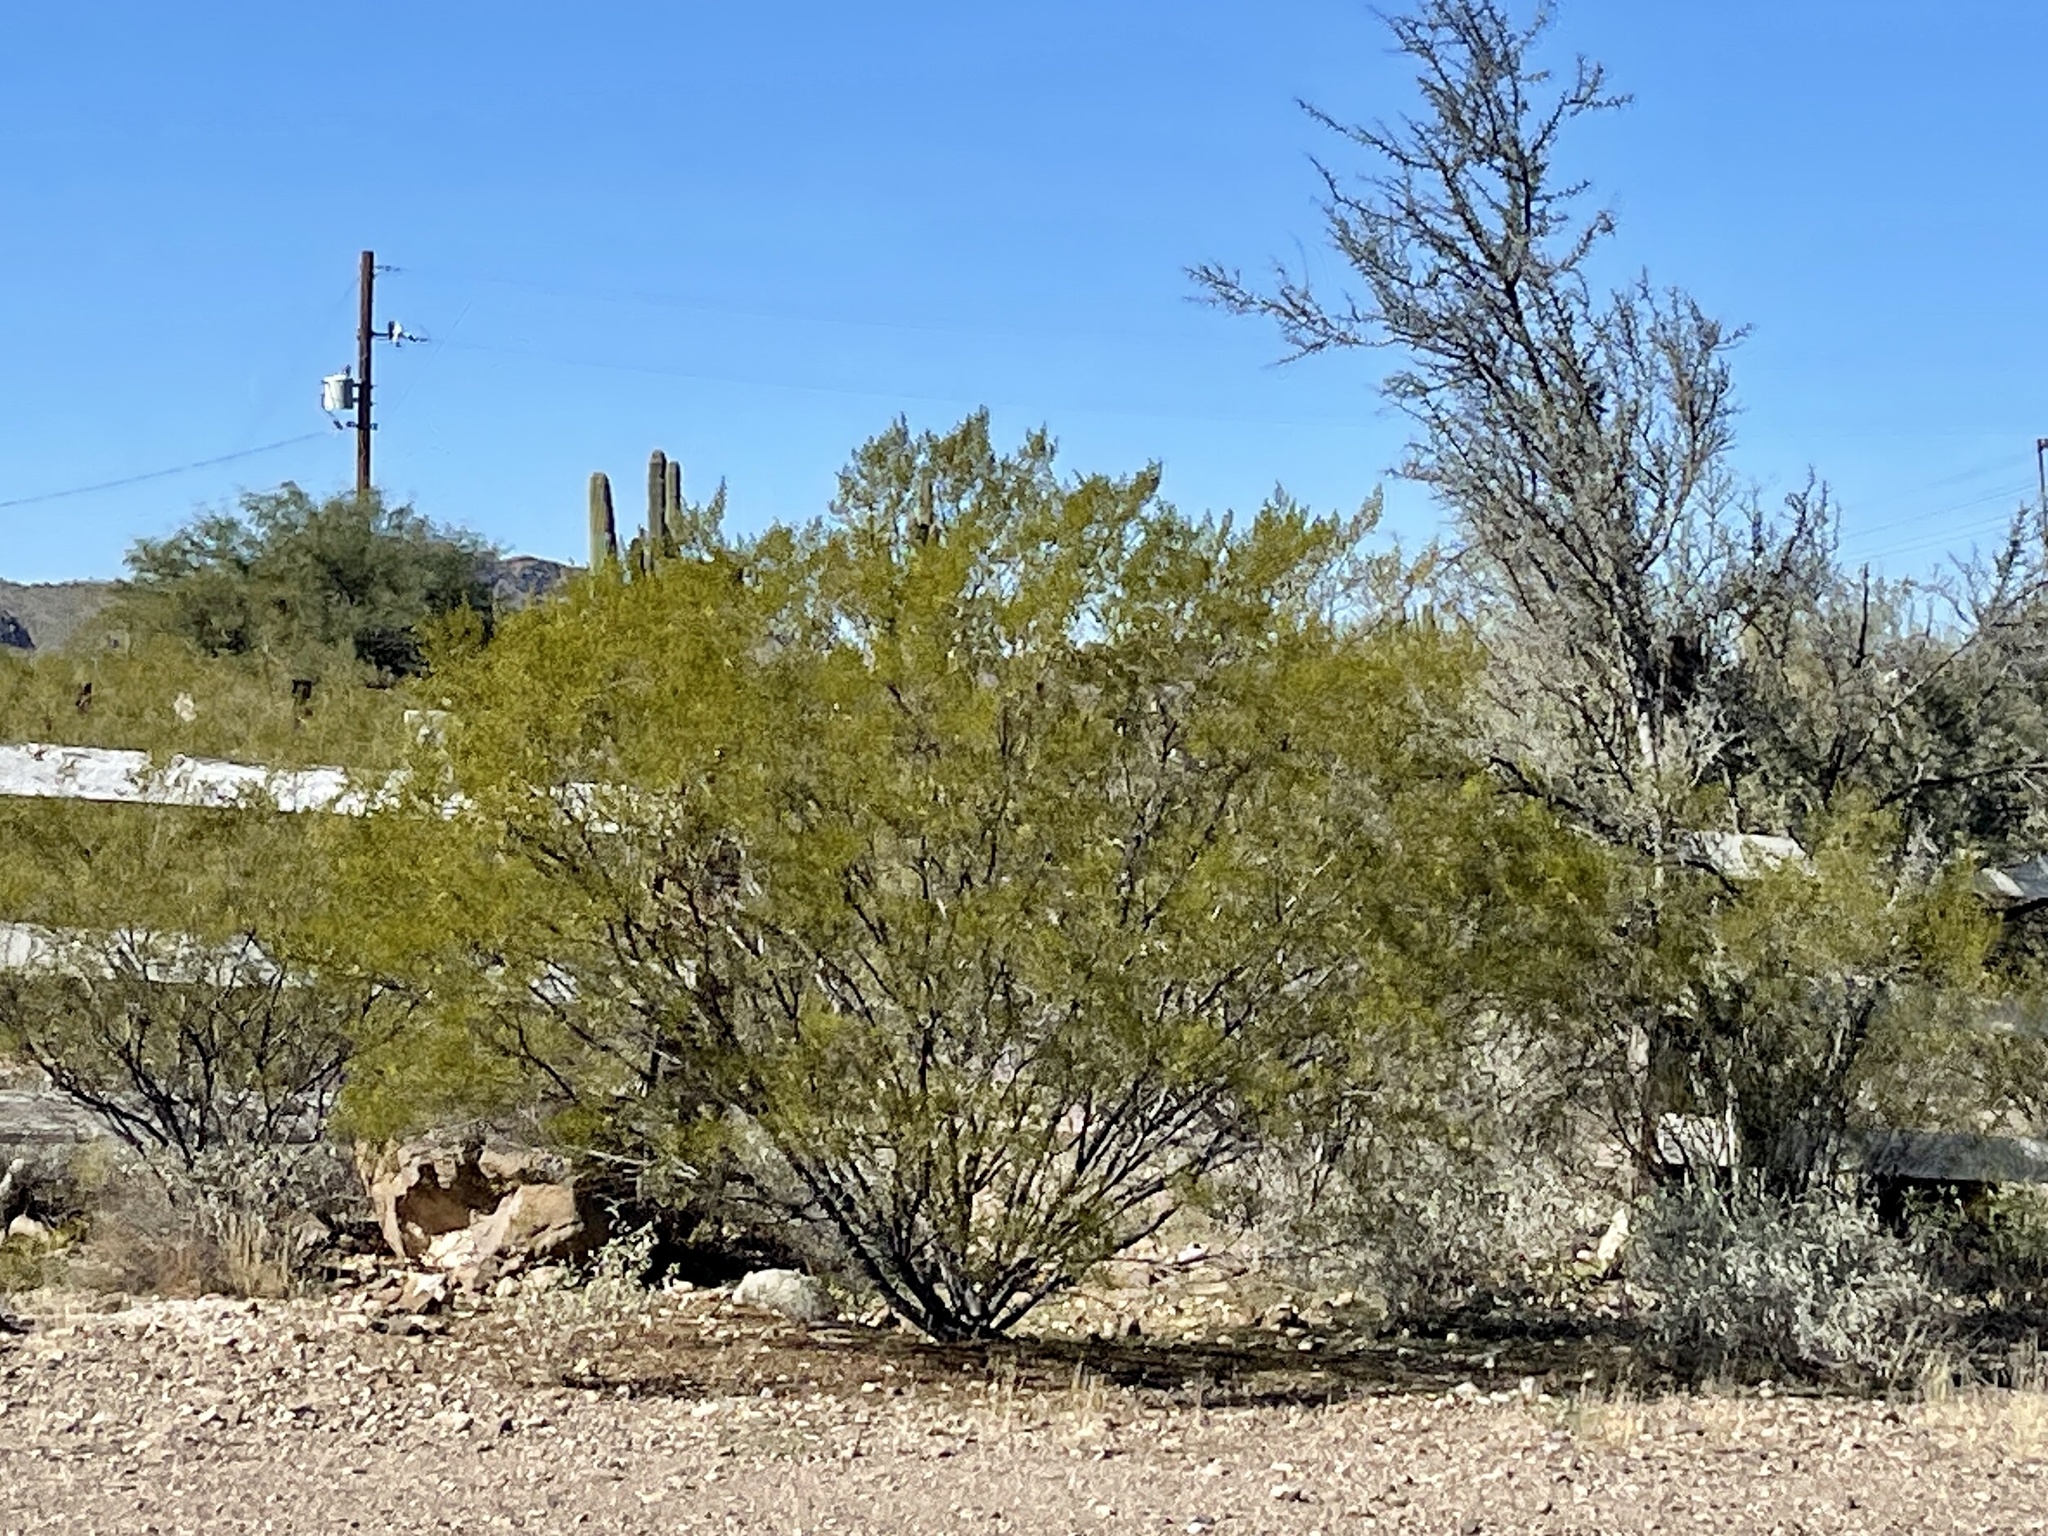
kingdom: Plantae
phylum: Tracheophyta
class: Magnoliopsida
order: Zygophyllales
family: Zygophyllaceae
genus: Larrea
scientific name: Larrea tridentata
